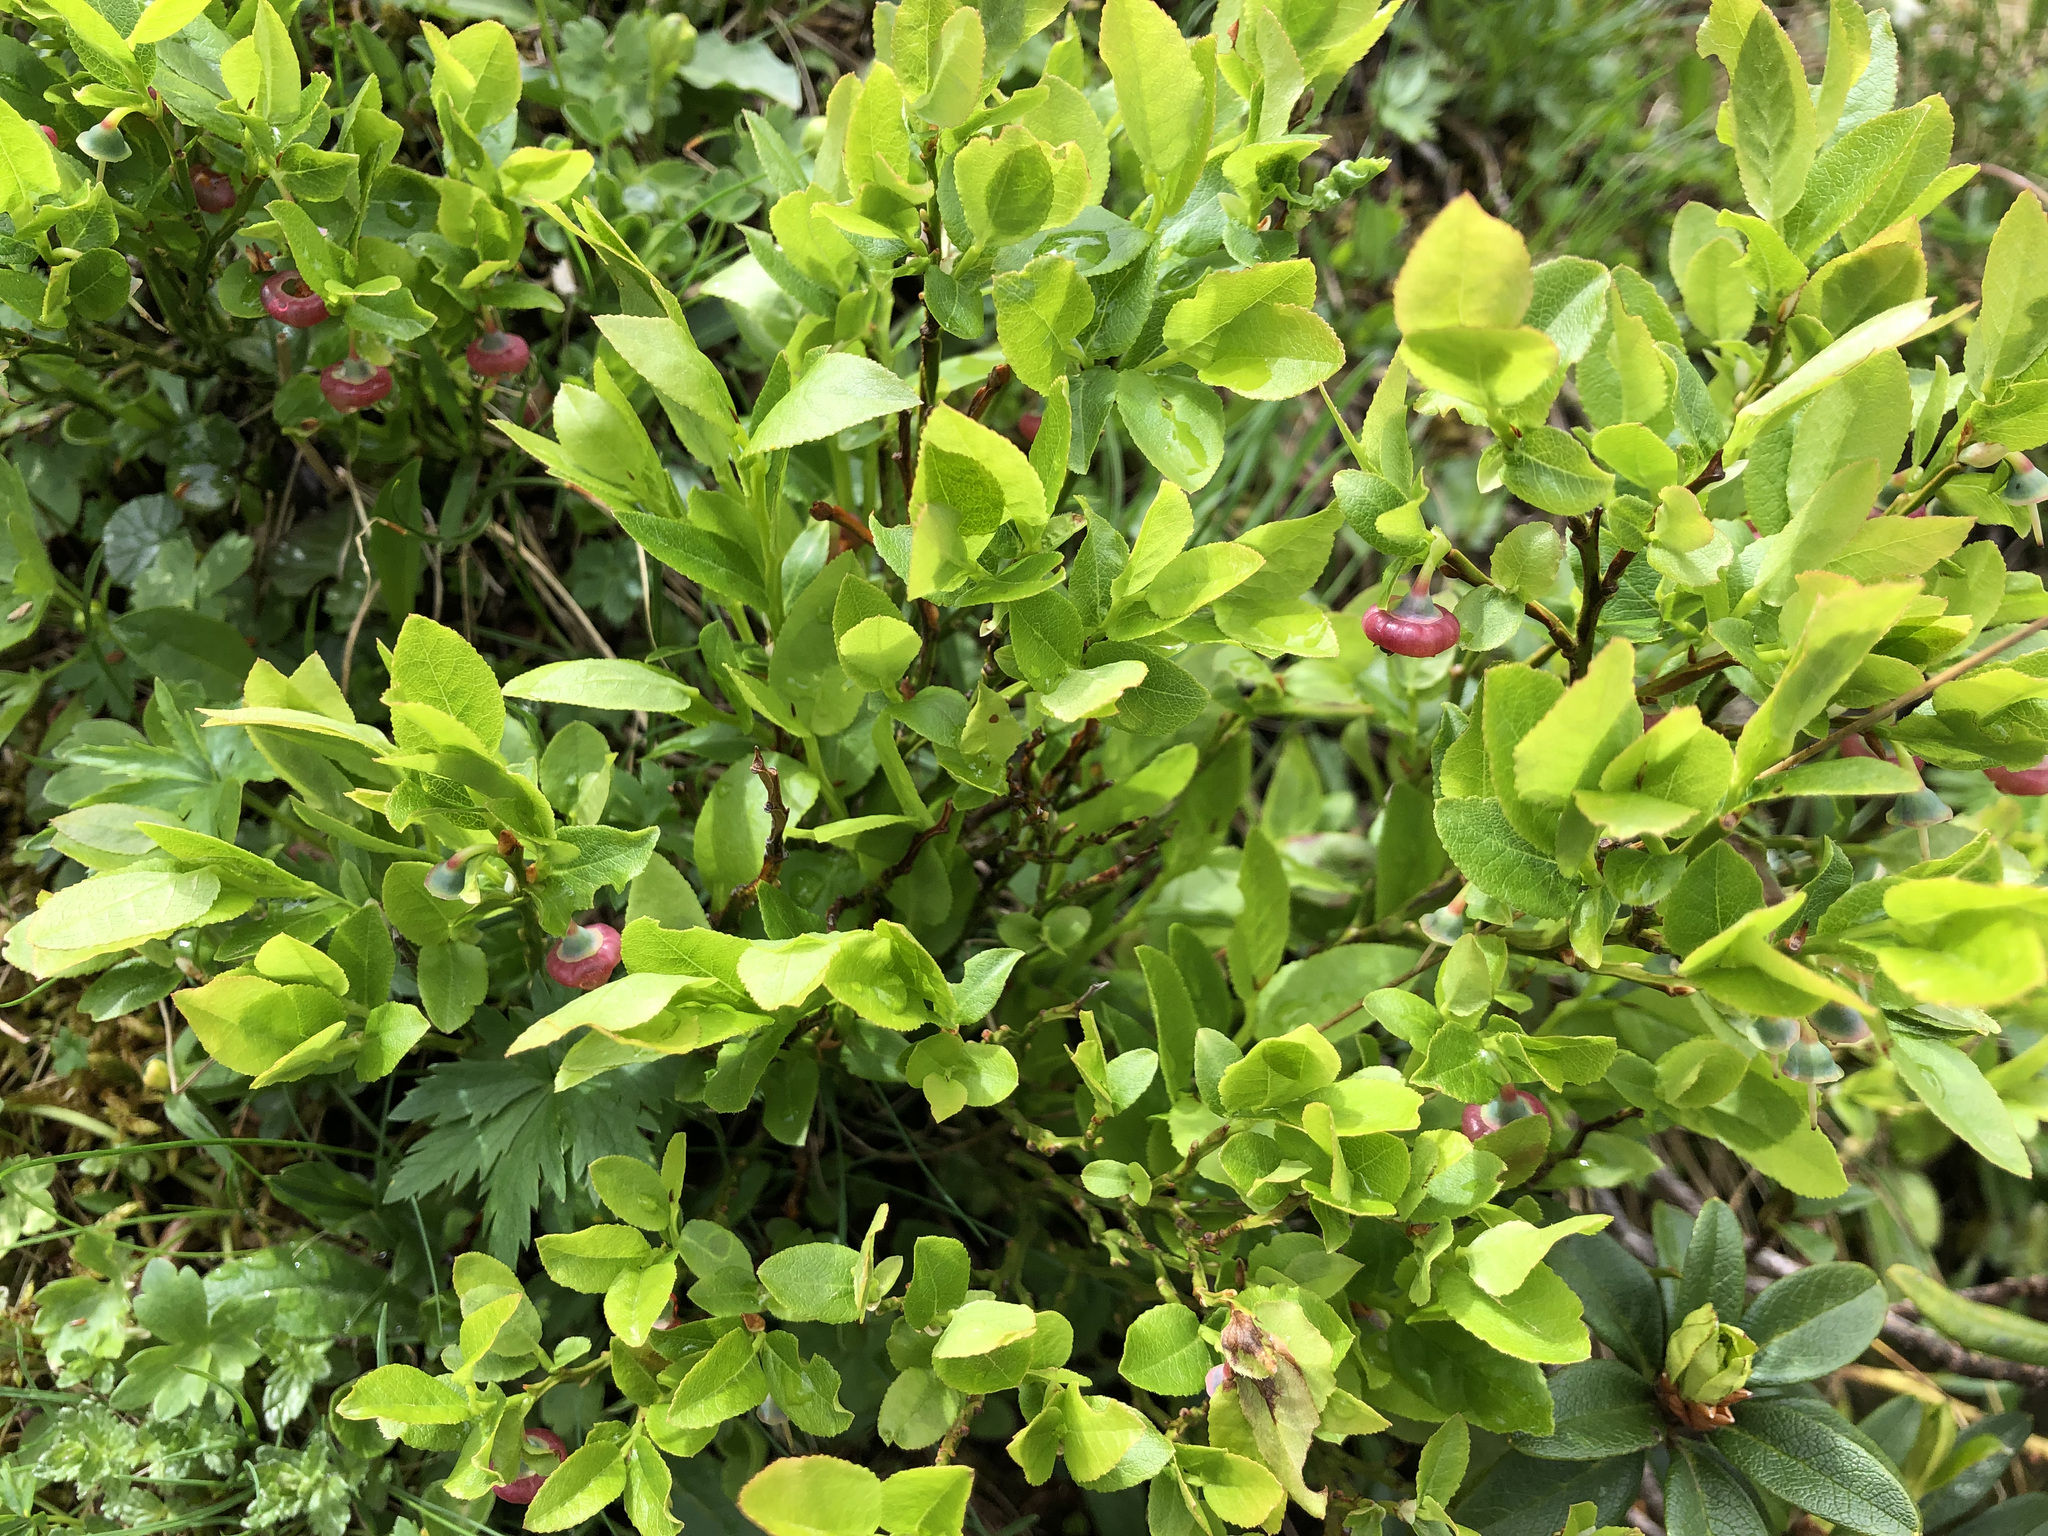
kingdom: Plantae
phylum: Tracheophyta
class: Magnoliopsida
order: Ericales
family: Ericaceae
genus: Vaccinium
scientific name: Vaccinium myrtillus
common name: Bilberry
